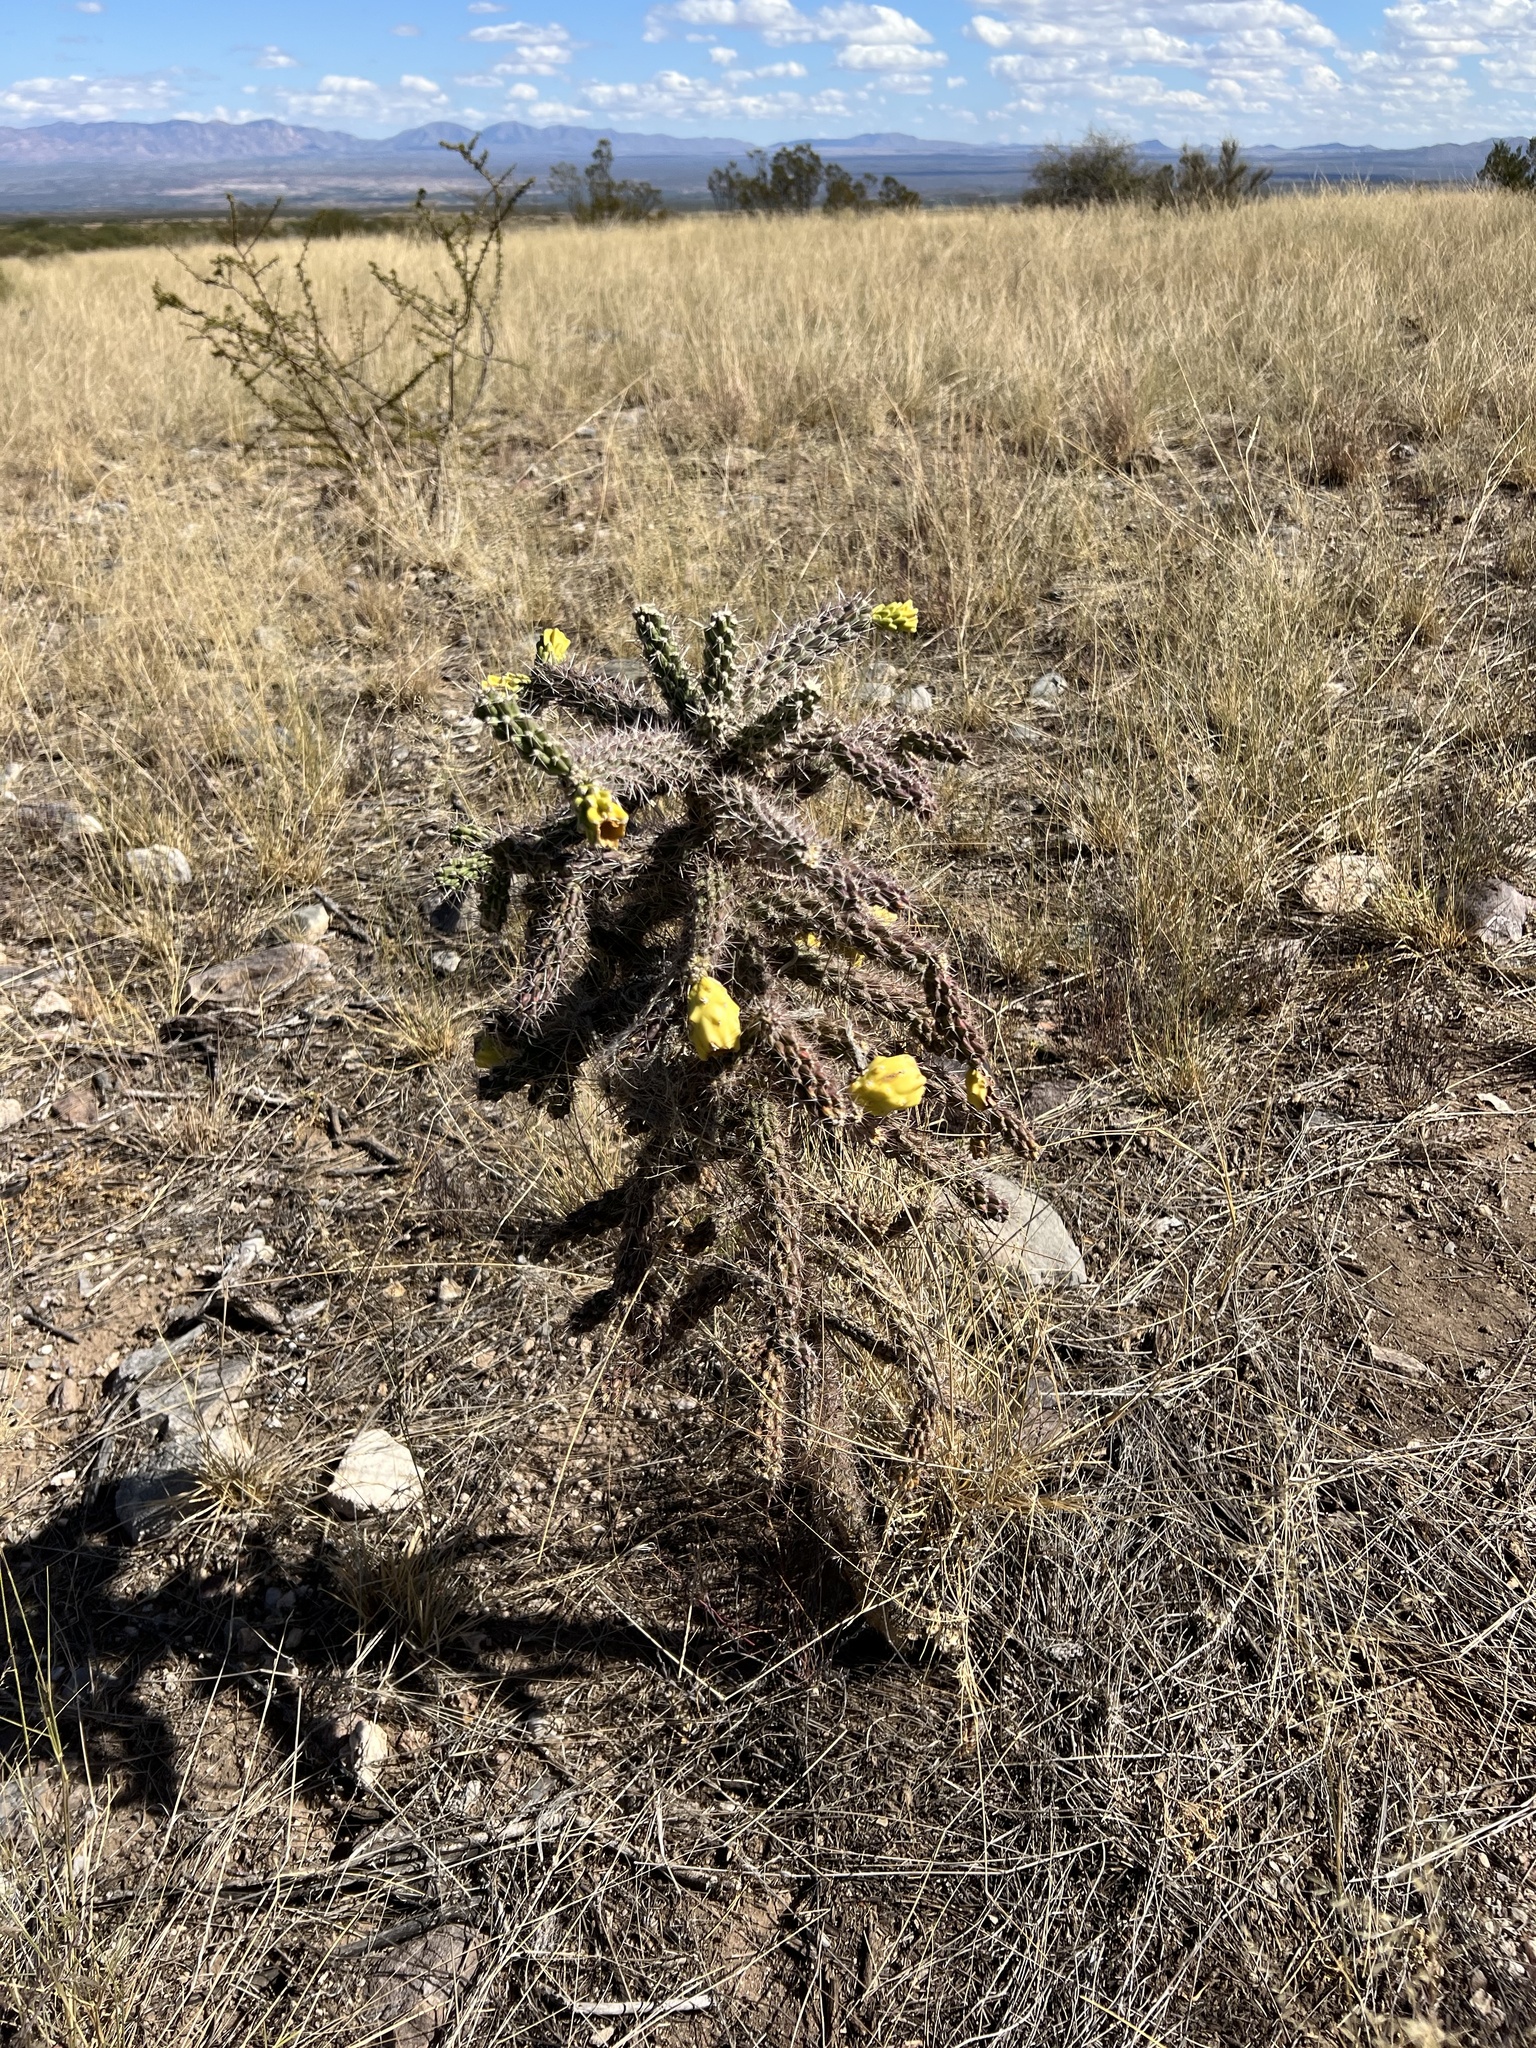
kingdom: Plantae
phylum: Tracheophyta
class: Magnoliopsida
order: Caryophyllales
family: Cactaceae
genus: Cylindropuntia
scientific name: Cylindropuntia imbricata
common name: Candelabrum cactus
